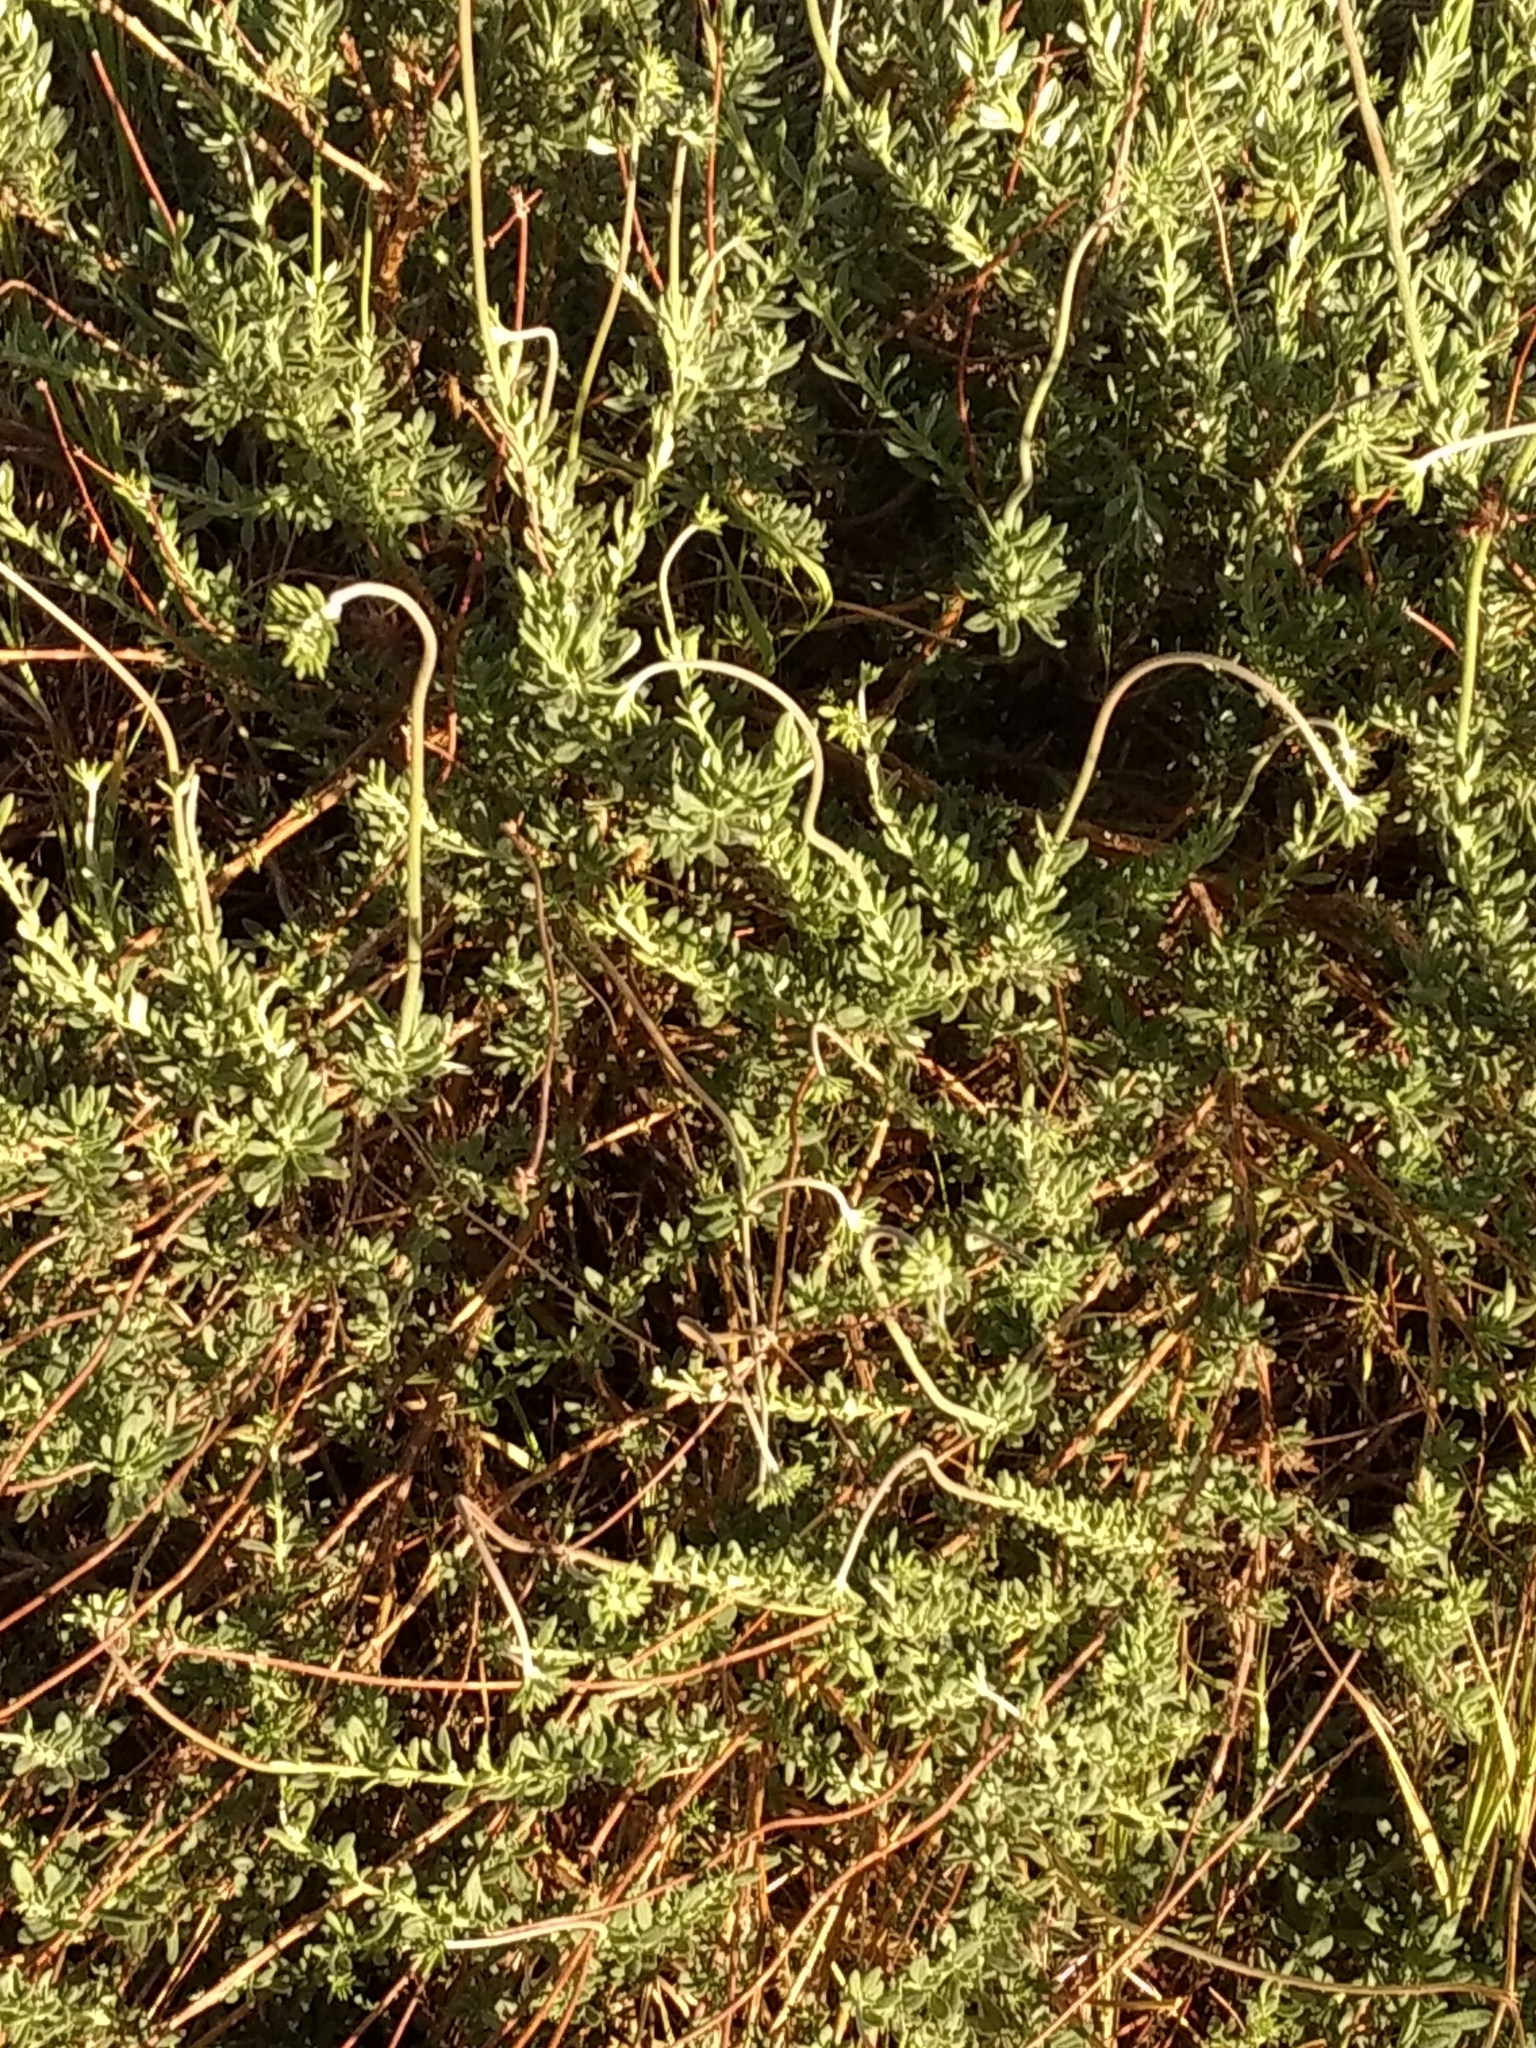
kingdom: Plantae
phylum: Tracheophyta
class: Magnoliopsida
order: Caryophyllales
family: Polygonaceae
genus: Eriogonum
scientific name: Eriogonum fasciculatum
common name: California wild buckwheat
